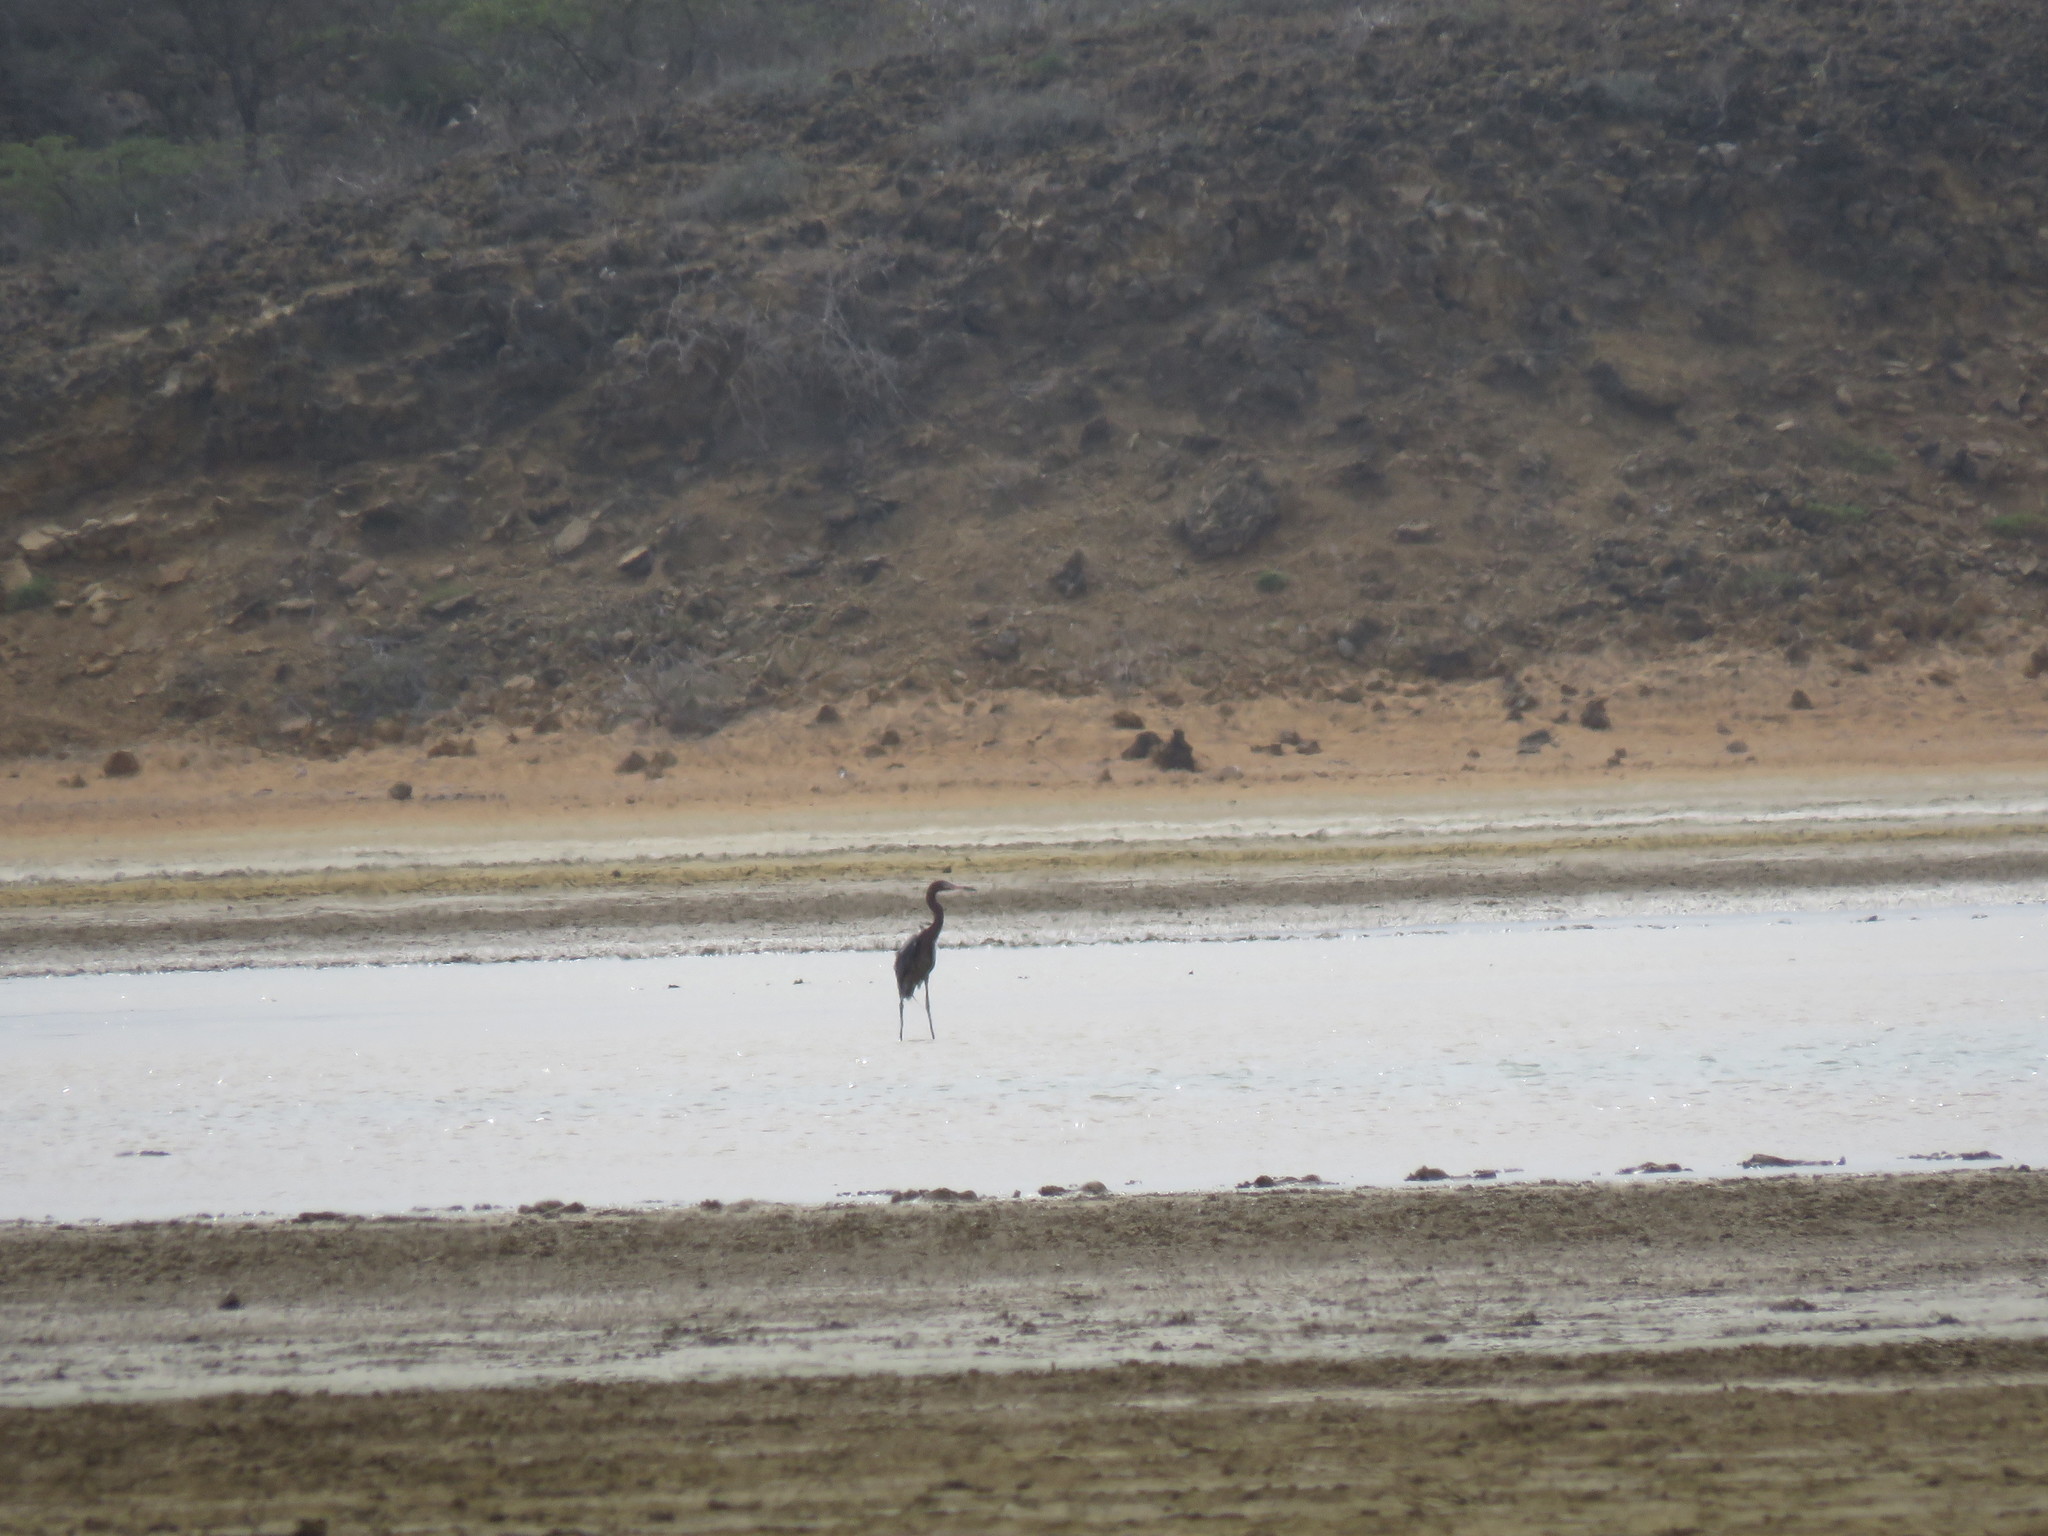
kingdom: Animalia
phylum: Chordata
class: Aves
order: Pelecaniformes
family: Ardeidae
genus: Egretta
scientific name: Egretta rufescens
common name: Reddish egret
